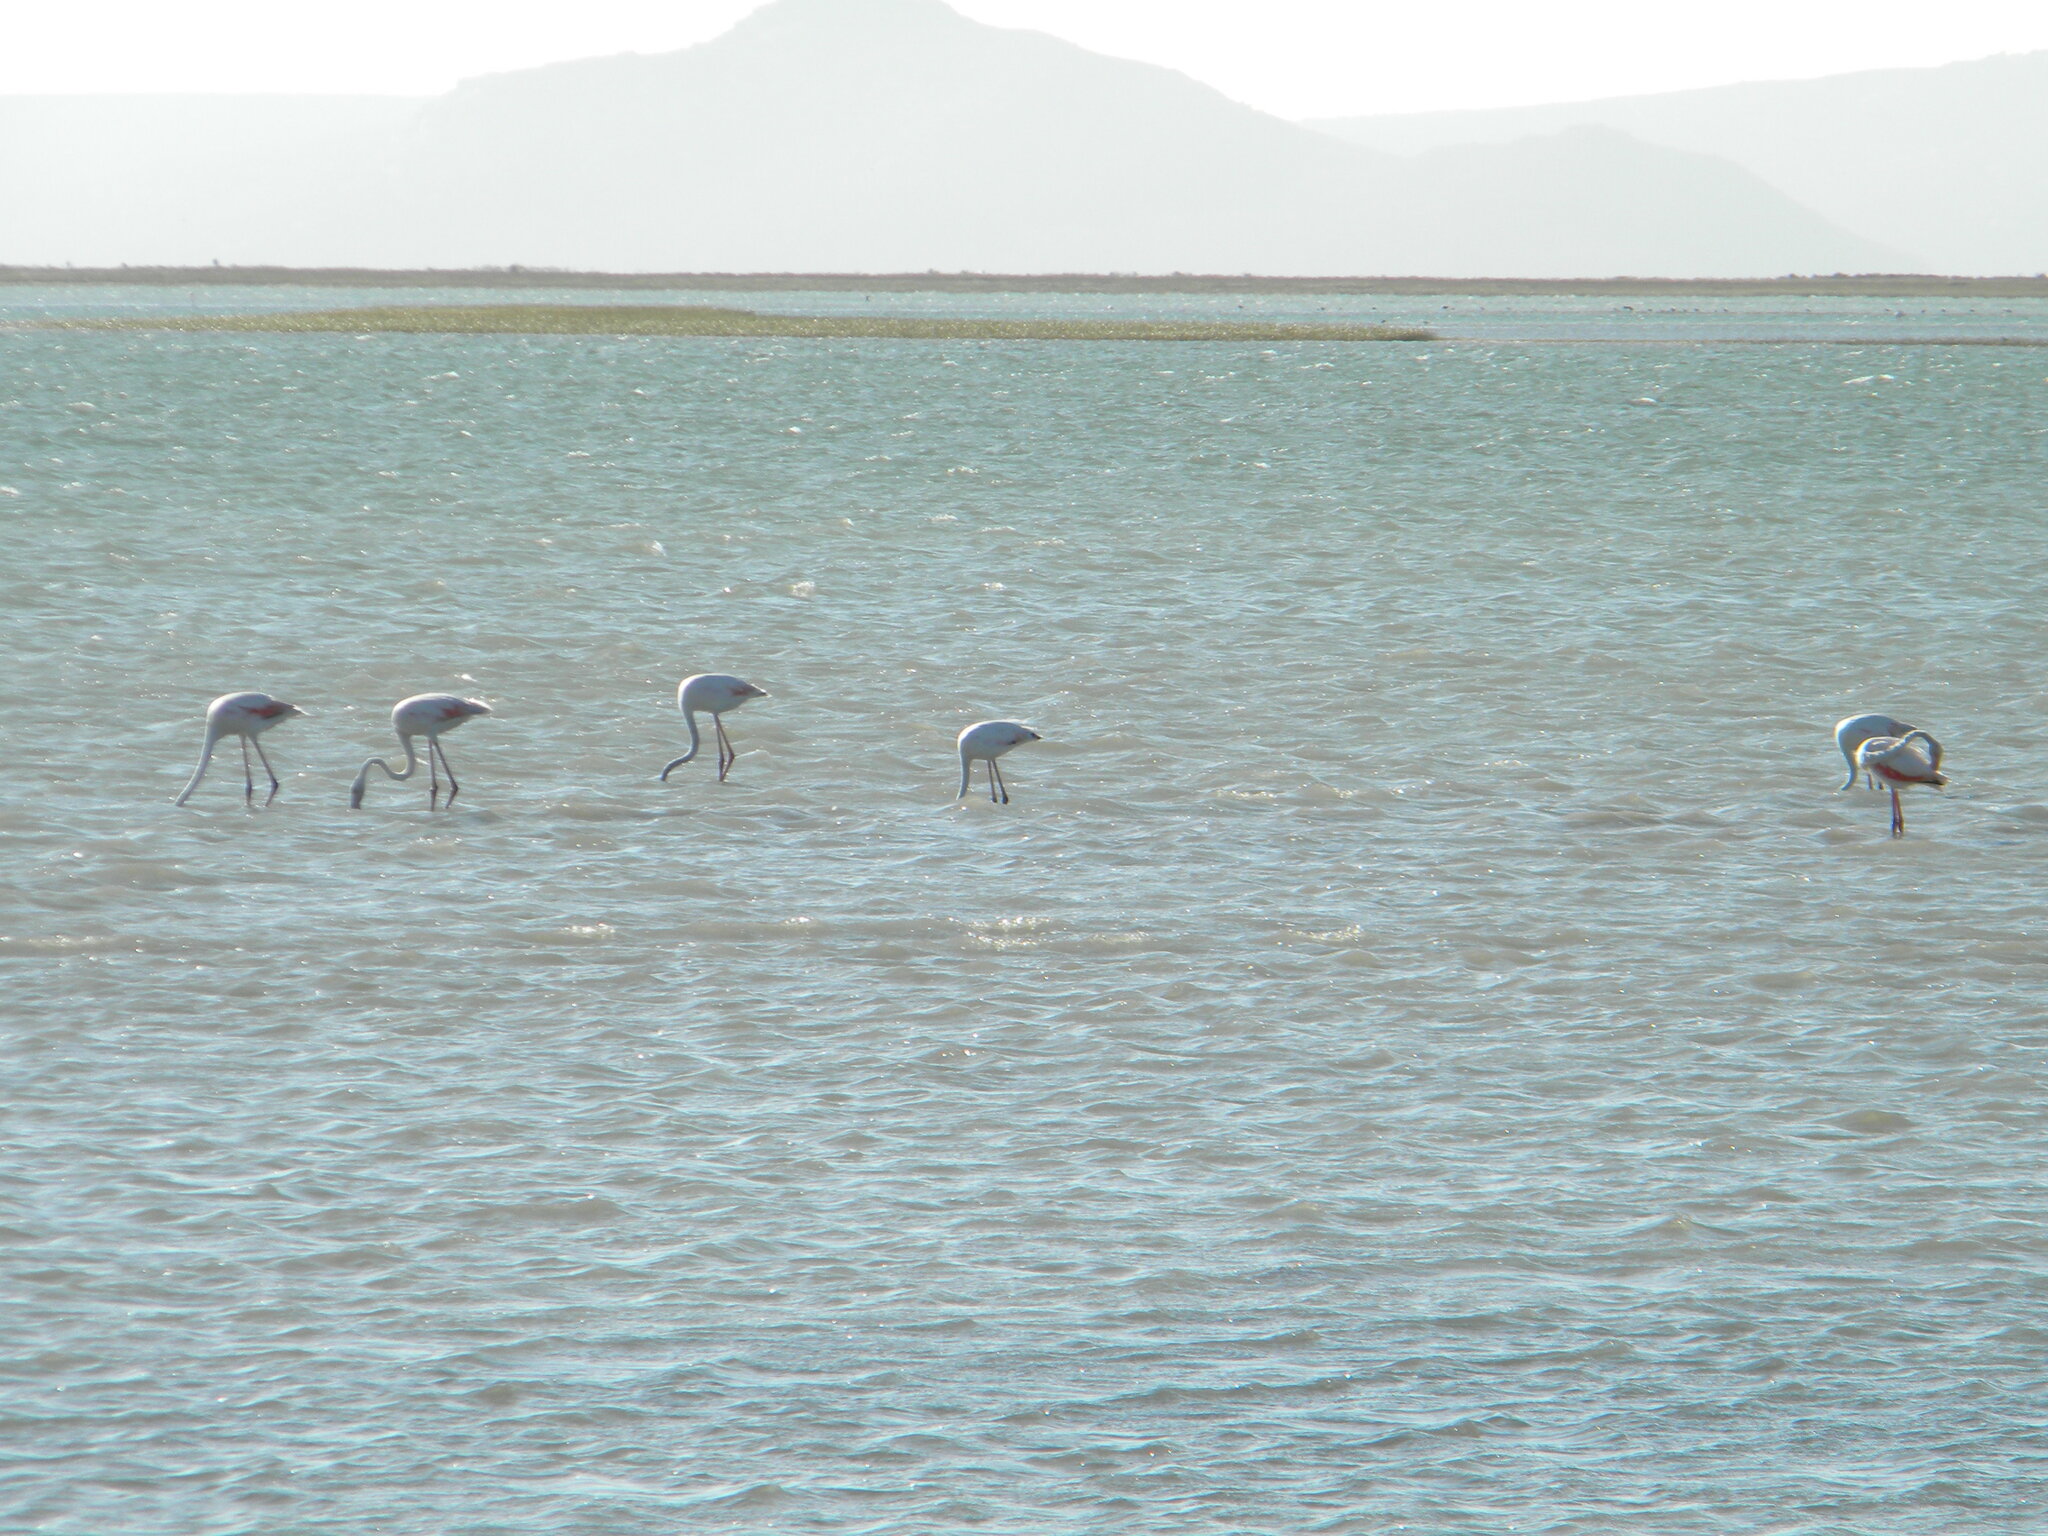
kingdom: Animalia
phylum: Chordata
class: Aves
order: Phoenicopteriformes
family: Phoenicopteridae
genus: Phoenicopterus
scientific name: Phoenicopterus roseus
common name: Greater flamingo
